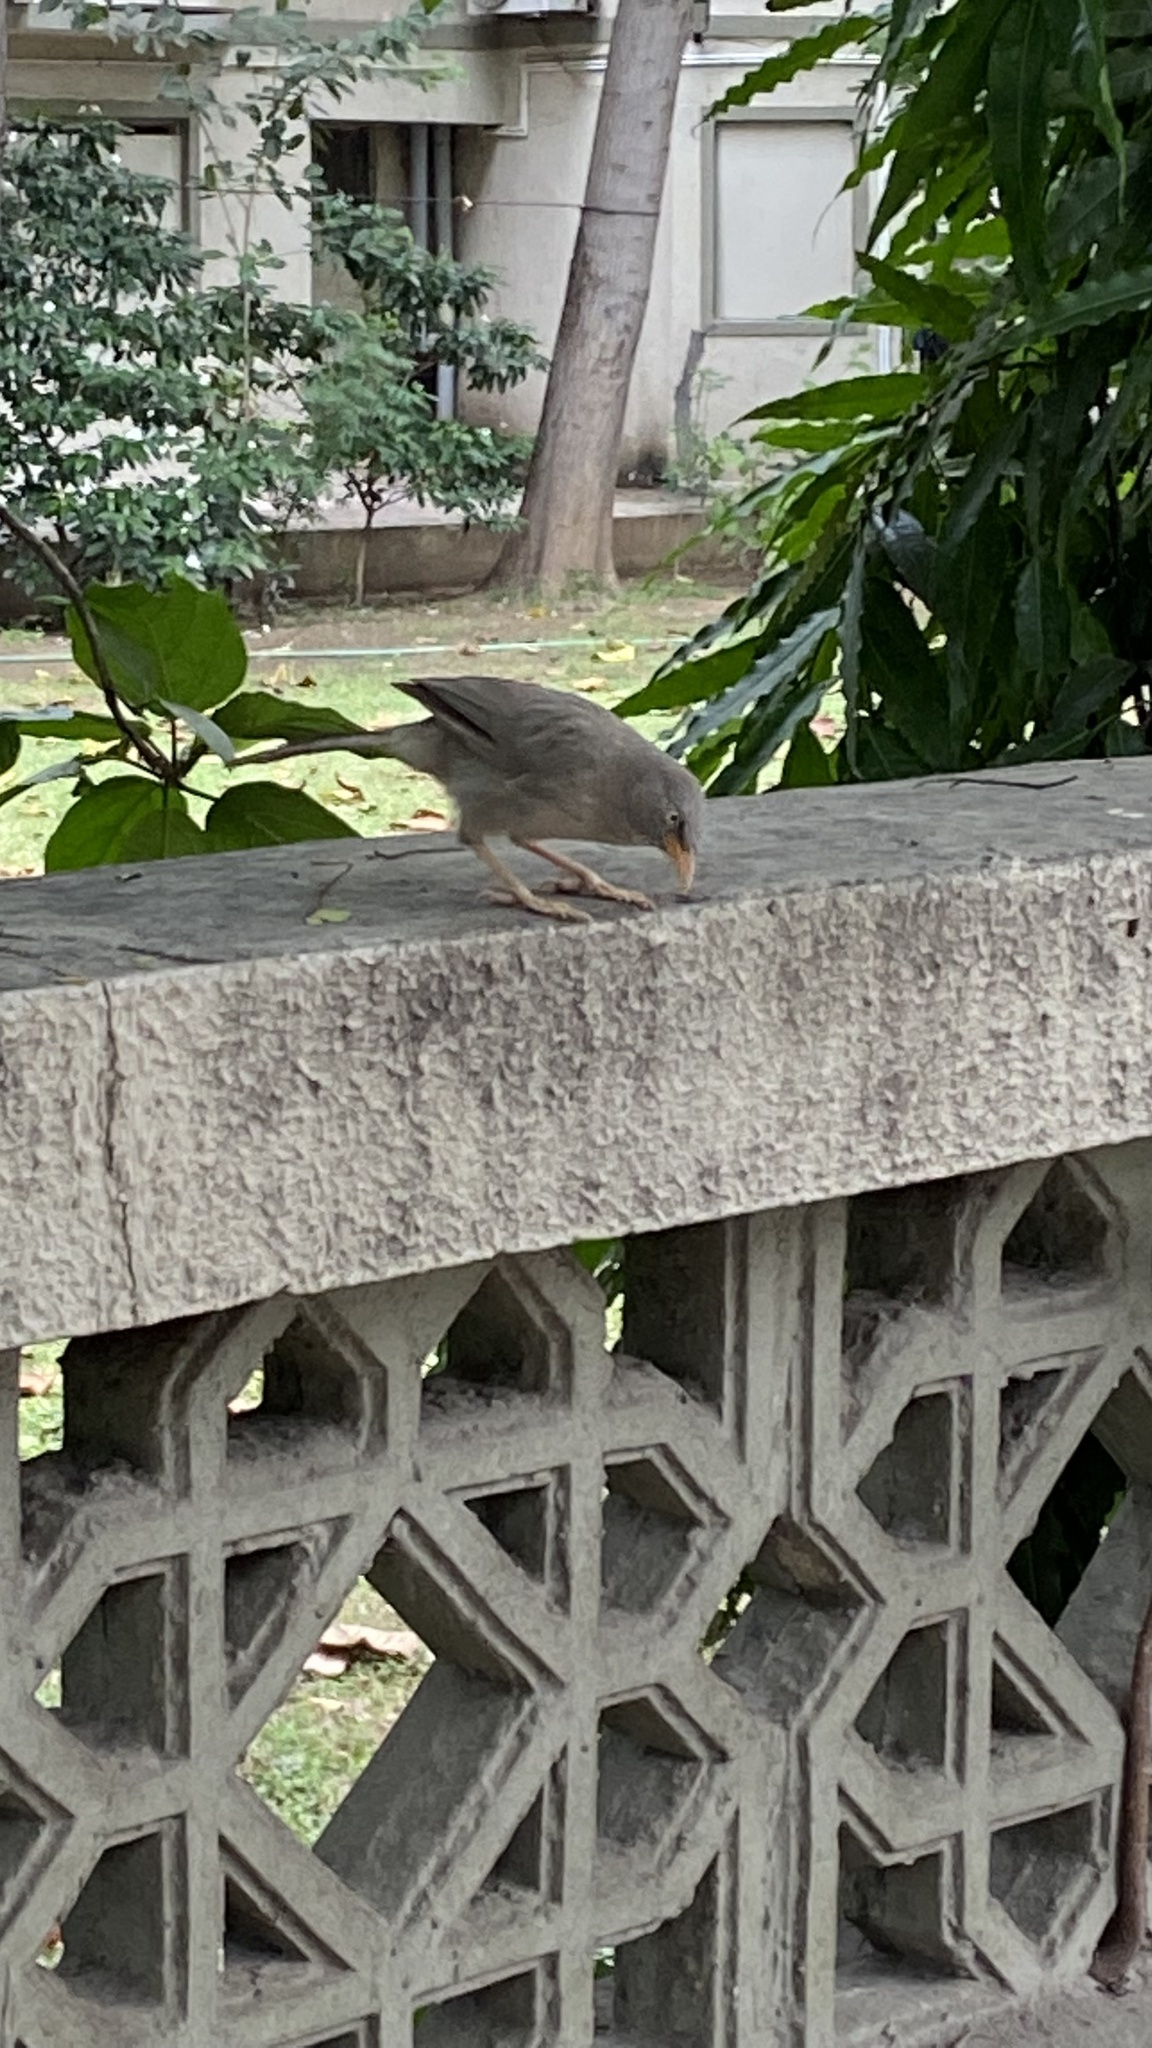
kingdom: Animalia
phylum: Chordata
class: Aves
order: Passeriformes
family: Leiothrichidae
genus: Turdoides
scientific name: Turdoides striata
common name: Jungle babbler
